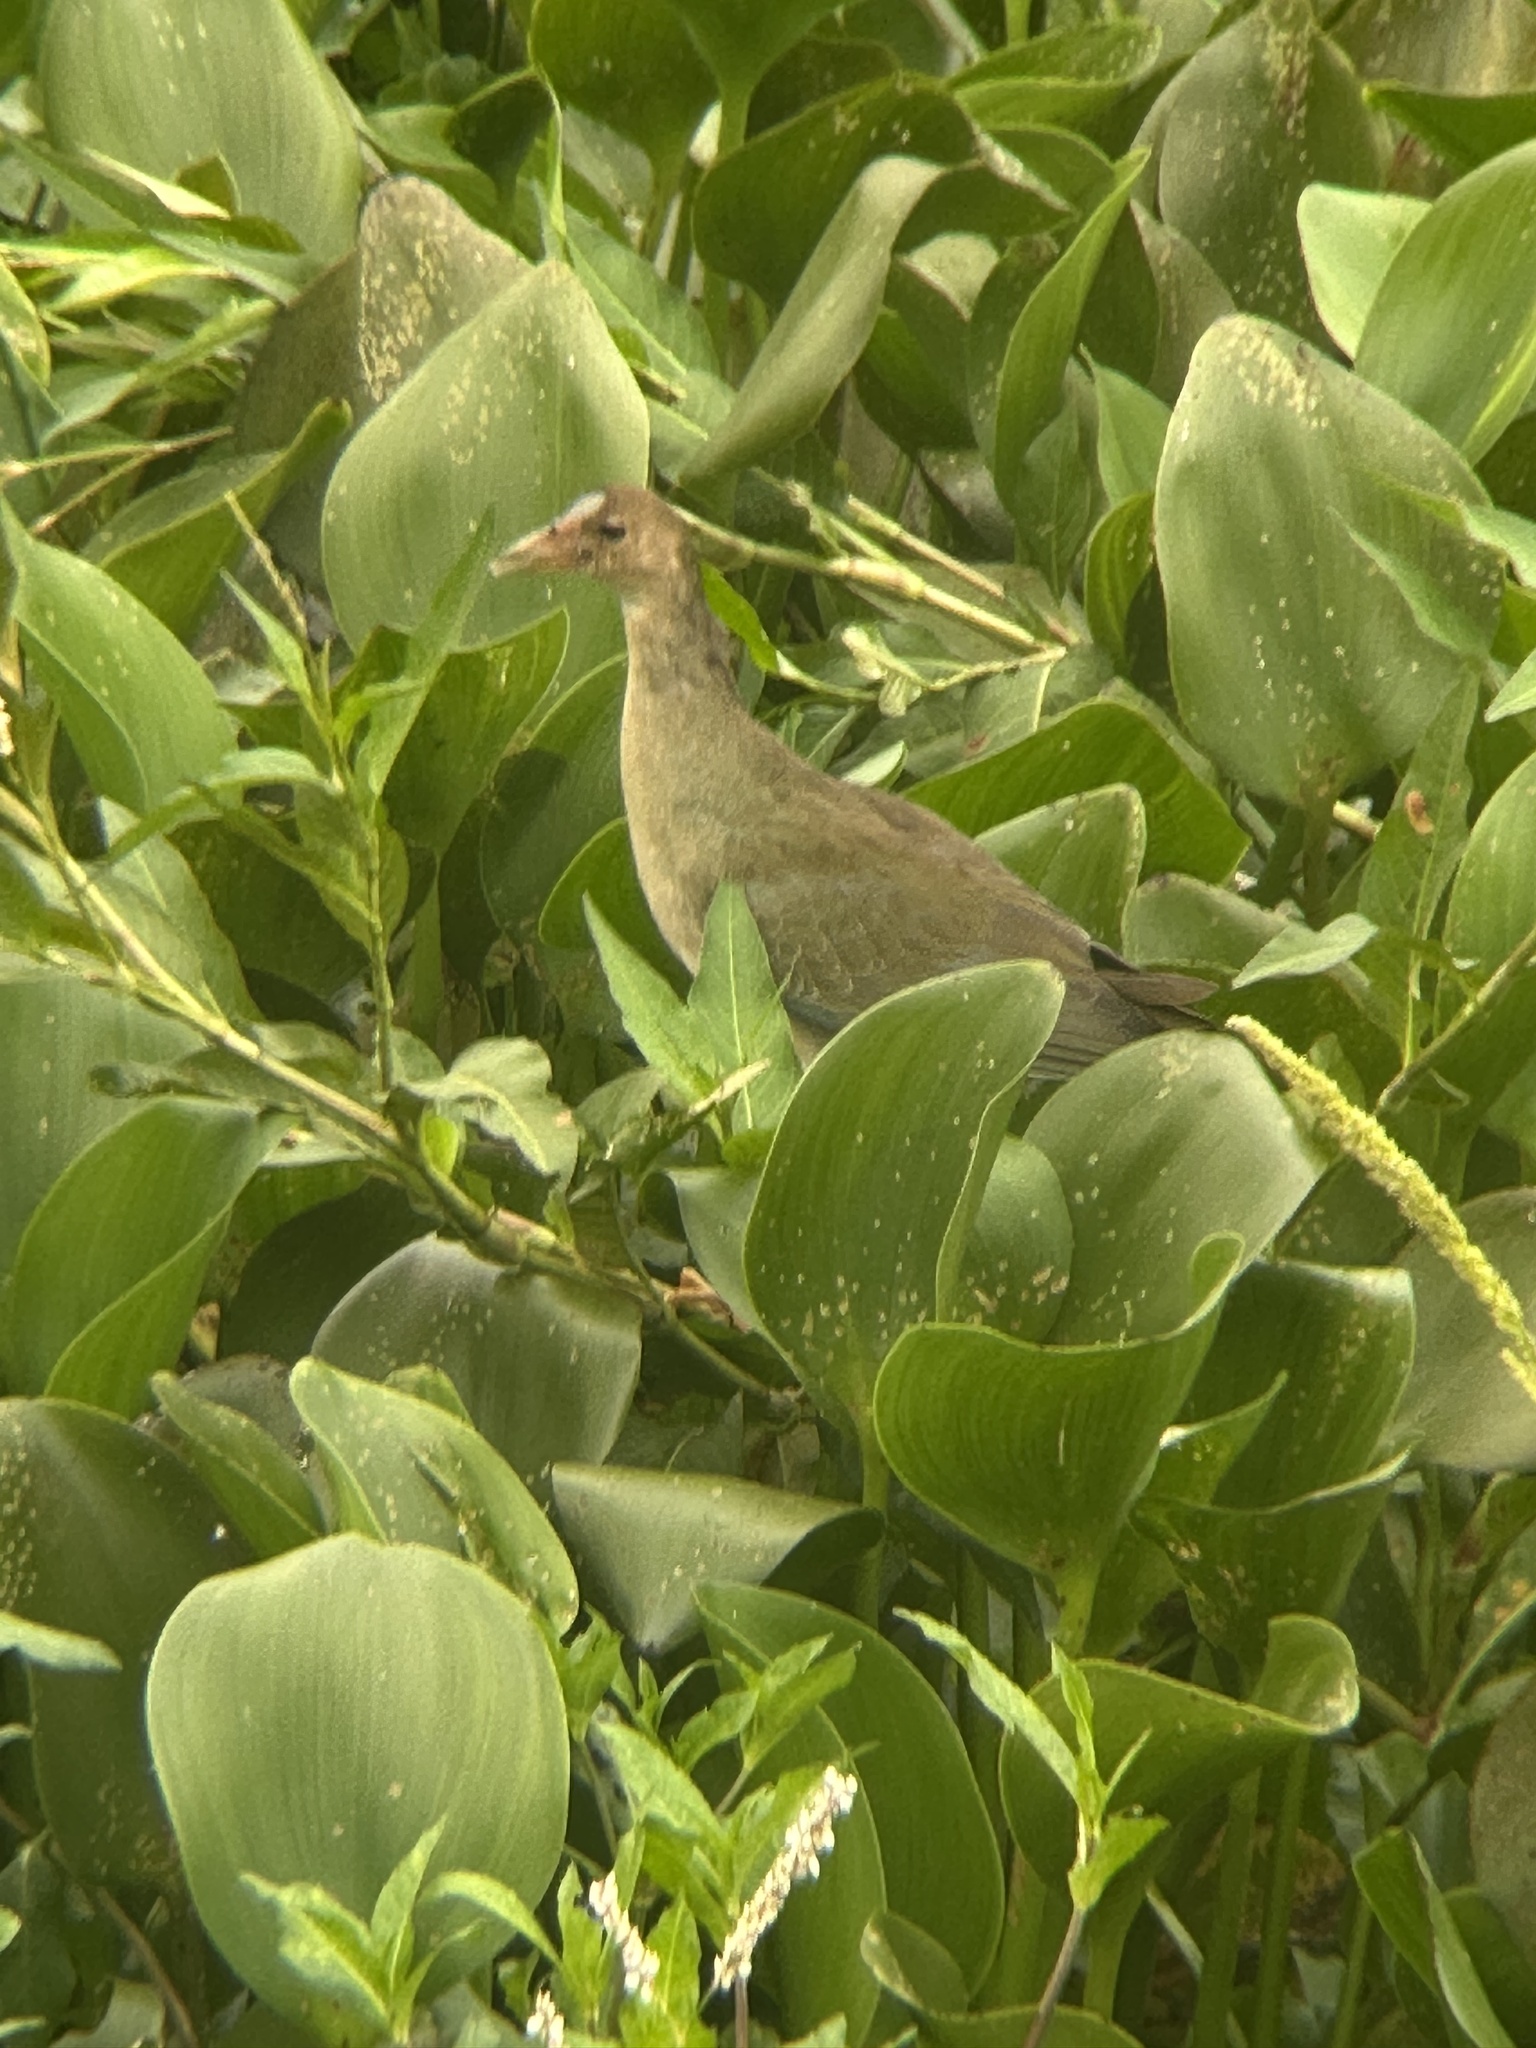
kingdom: Animalia
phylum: Chordata
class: Aves
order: Gruiformes
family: Rallidae
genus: Porphyrio
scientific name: Porphyrio martinica
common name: Purple gallinule
